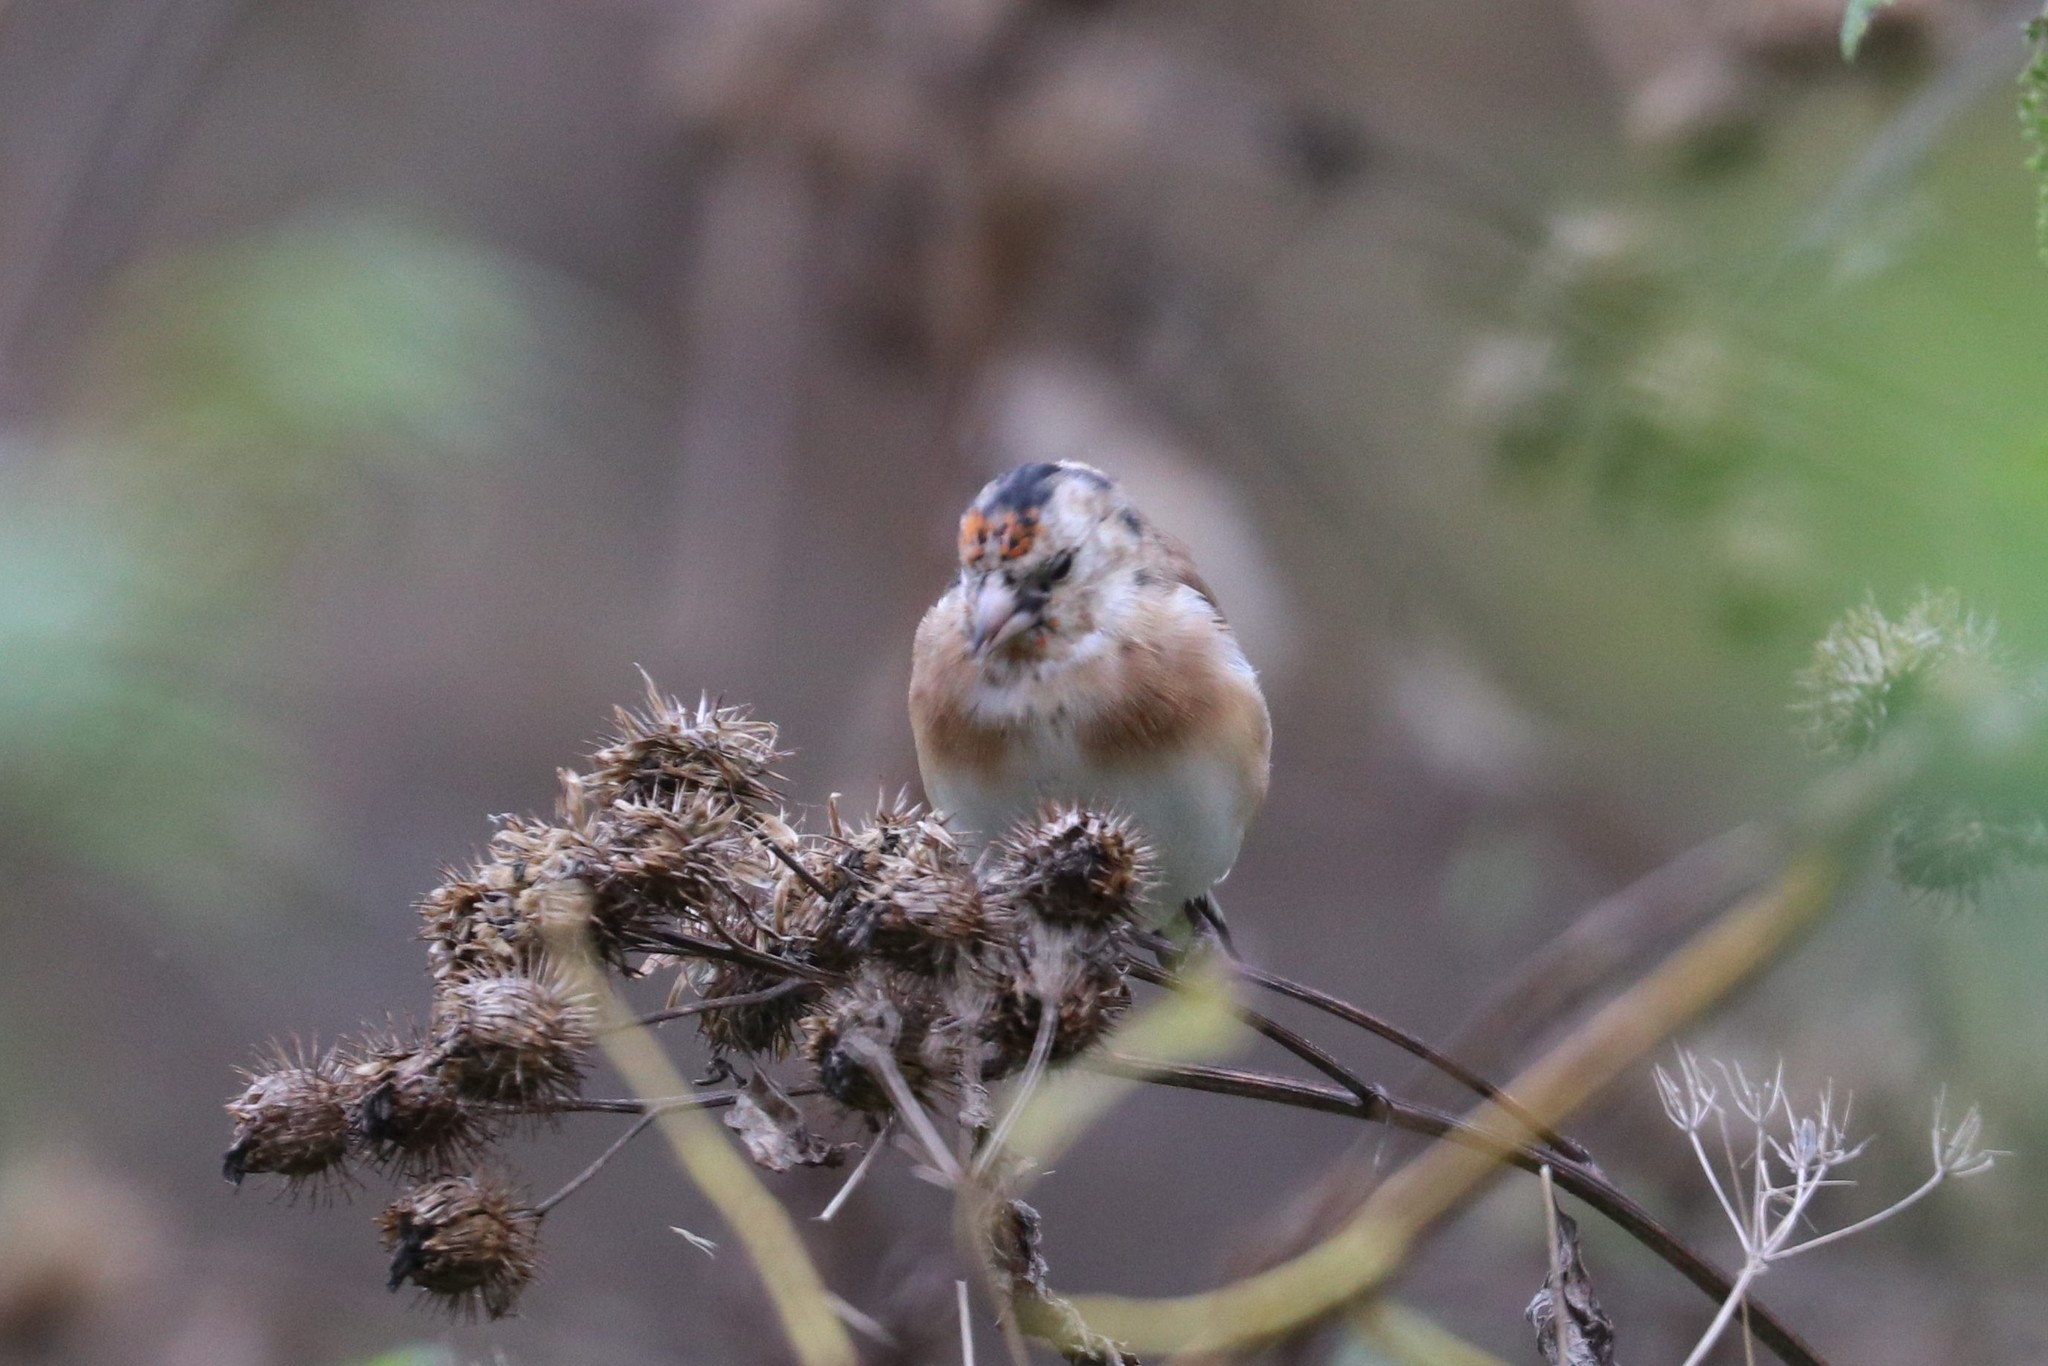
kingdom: Animalia
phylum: Chordata
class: Aves
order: Passeriformes
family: Fringillidae
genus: Carduelis
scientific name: Carduelis carduelis
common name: European goldfinch
